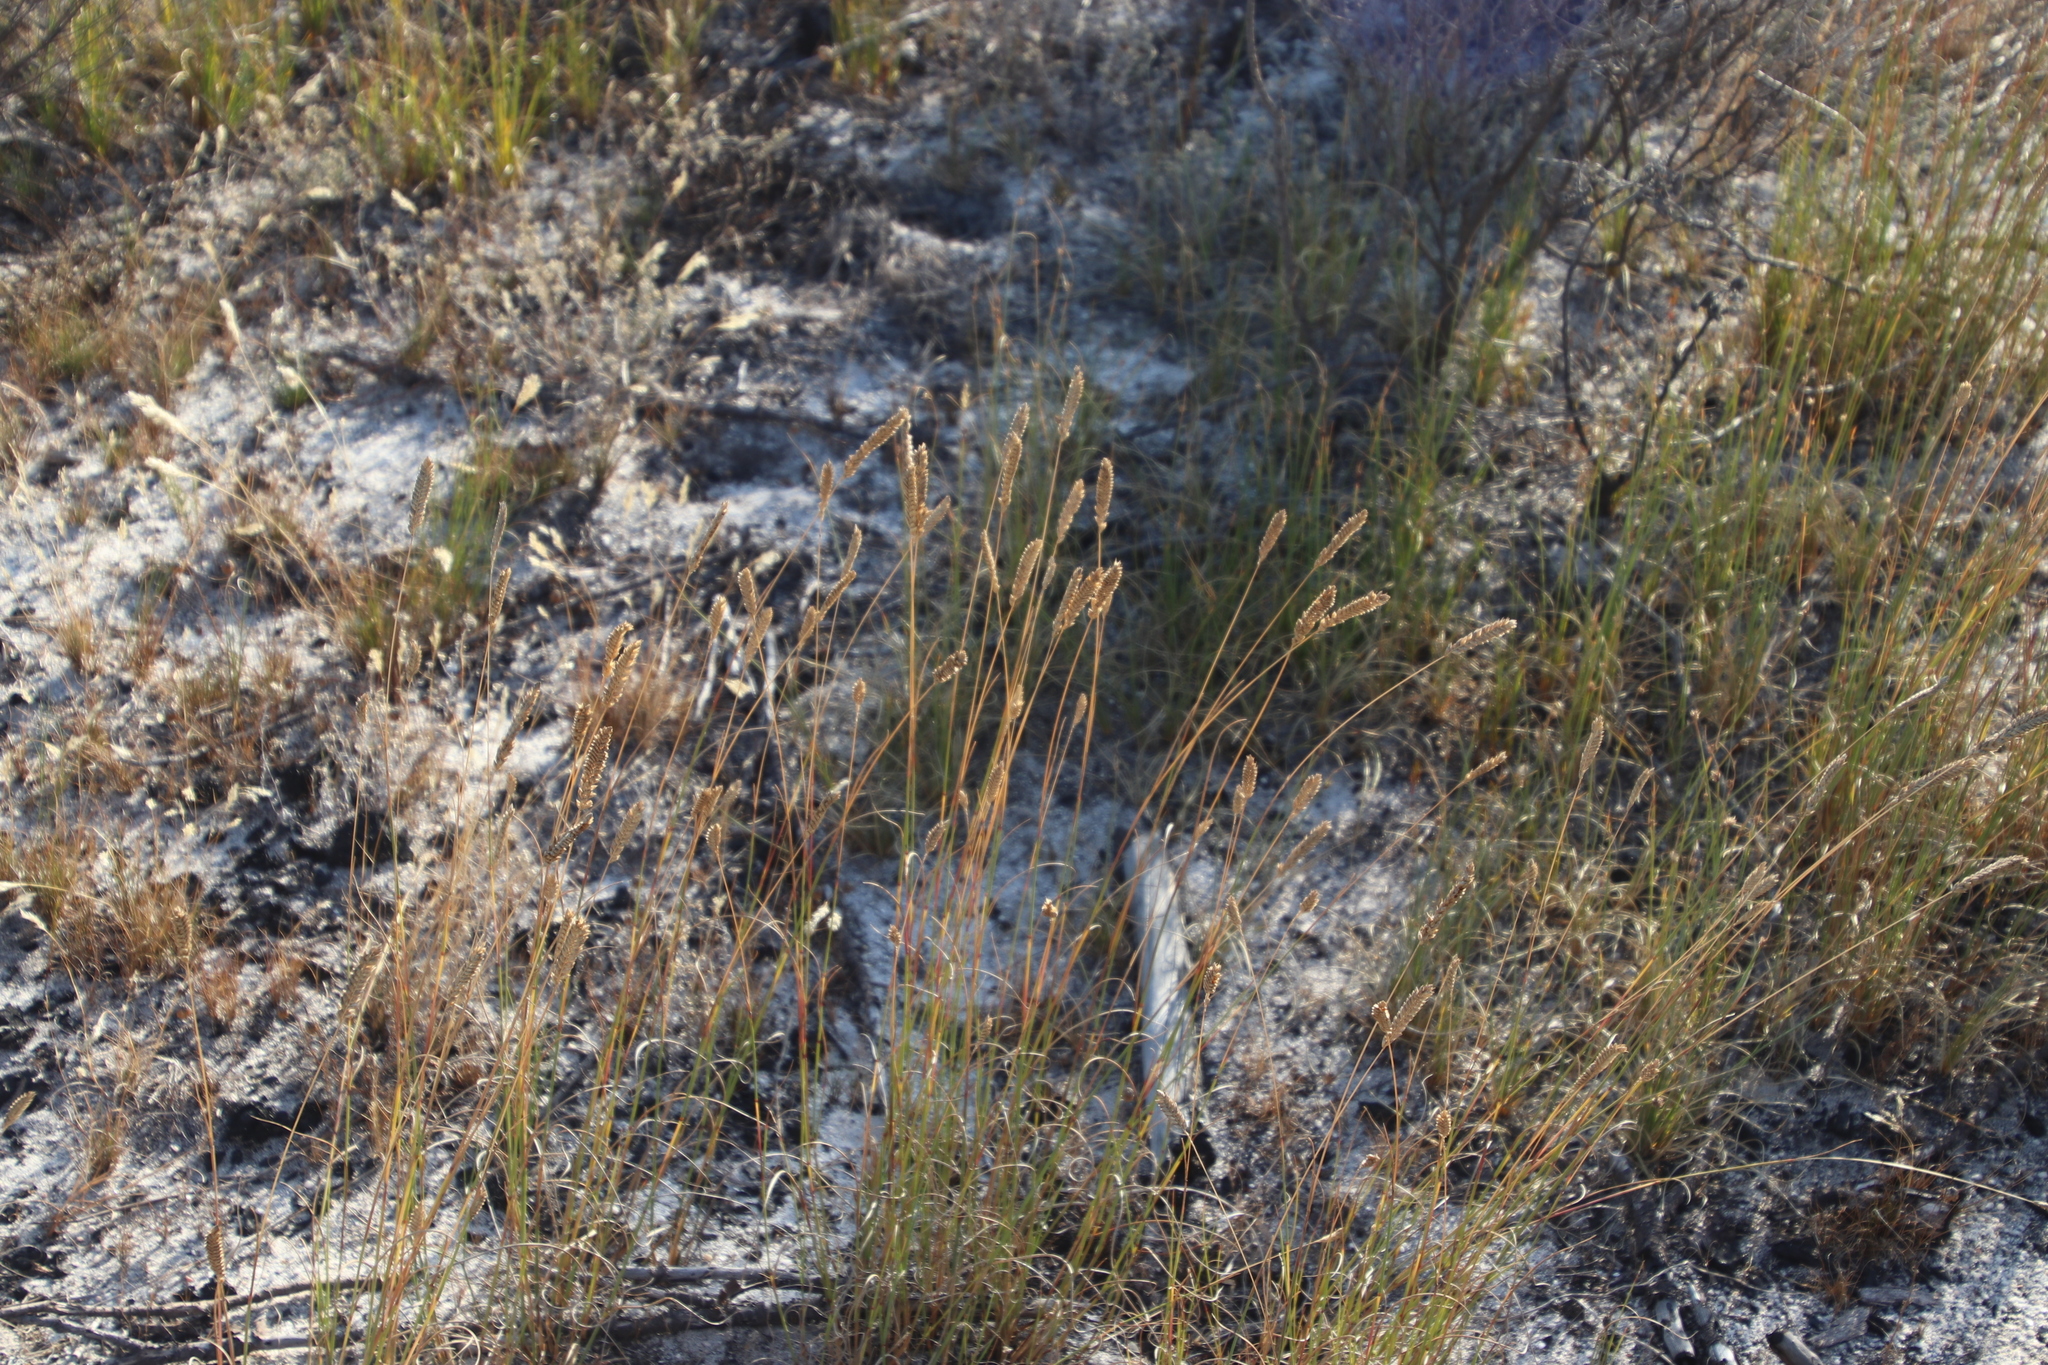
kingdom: Plantae
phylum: Tracheophyta
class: Liliopsida
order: Poales
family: Poaceae
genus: Tribolium
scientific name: Tribolium uniolae
